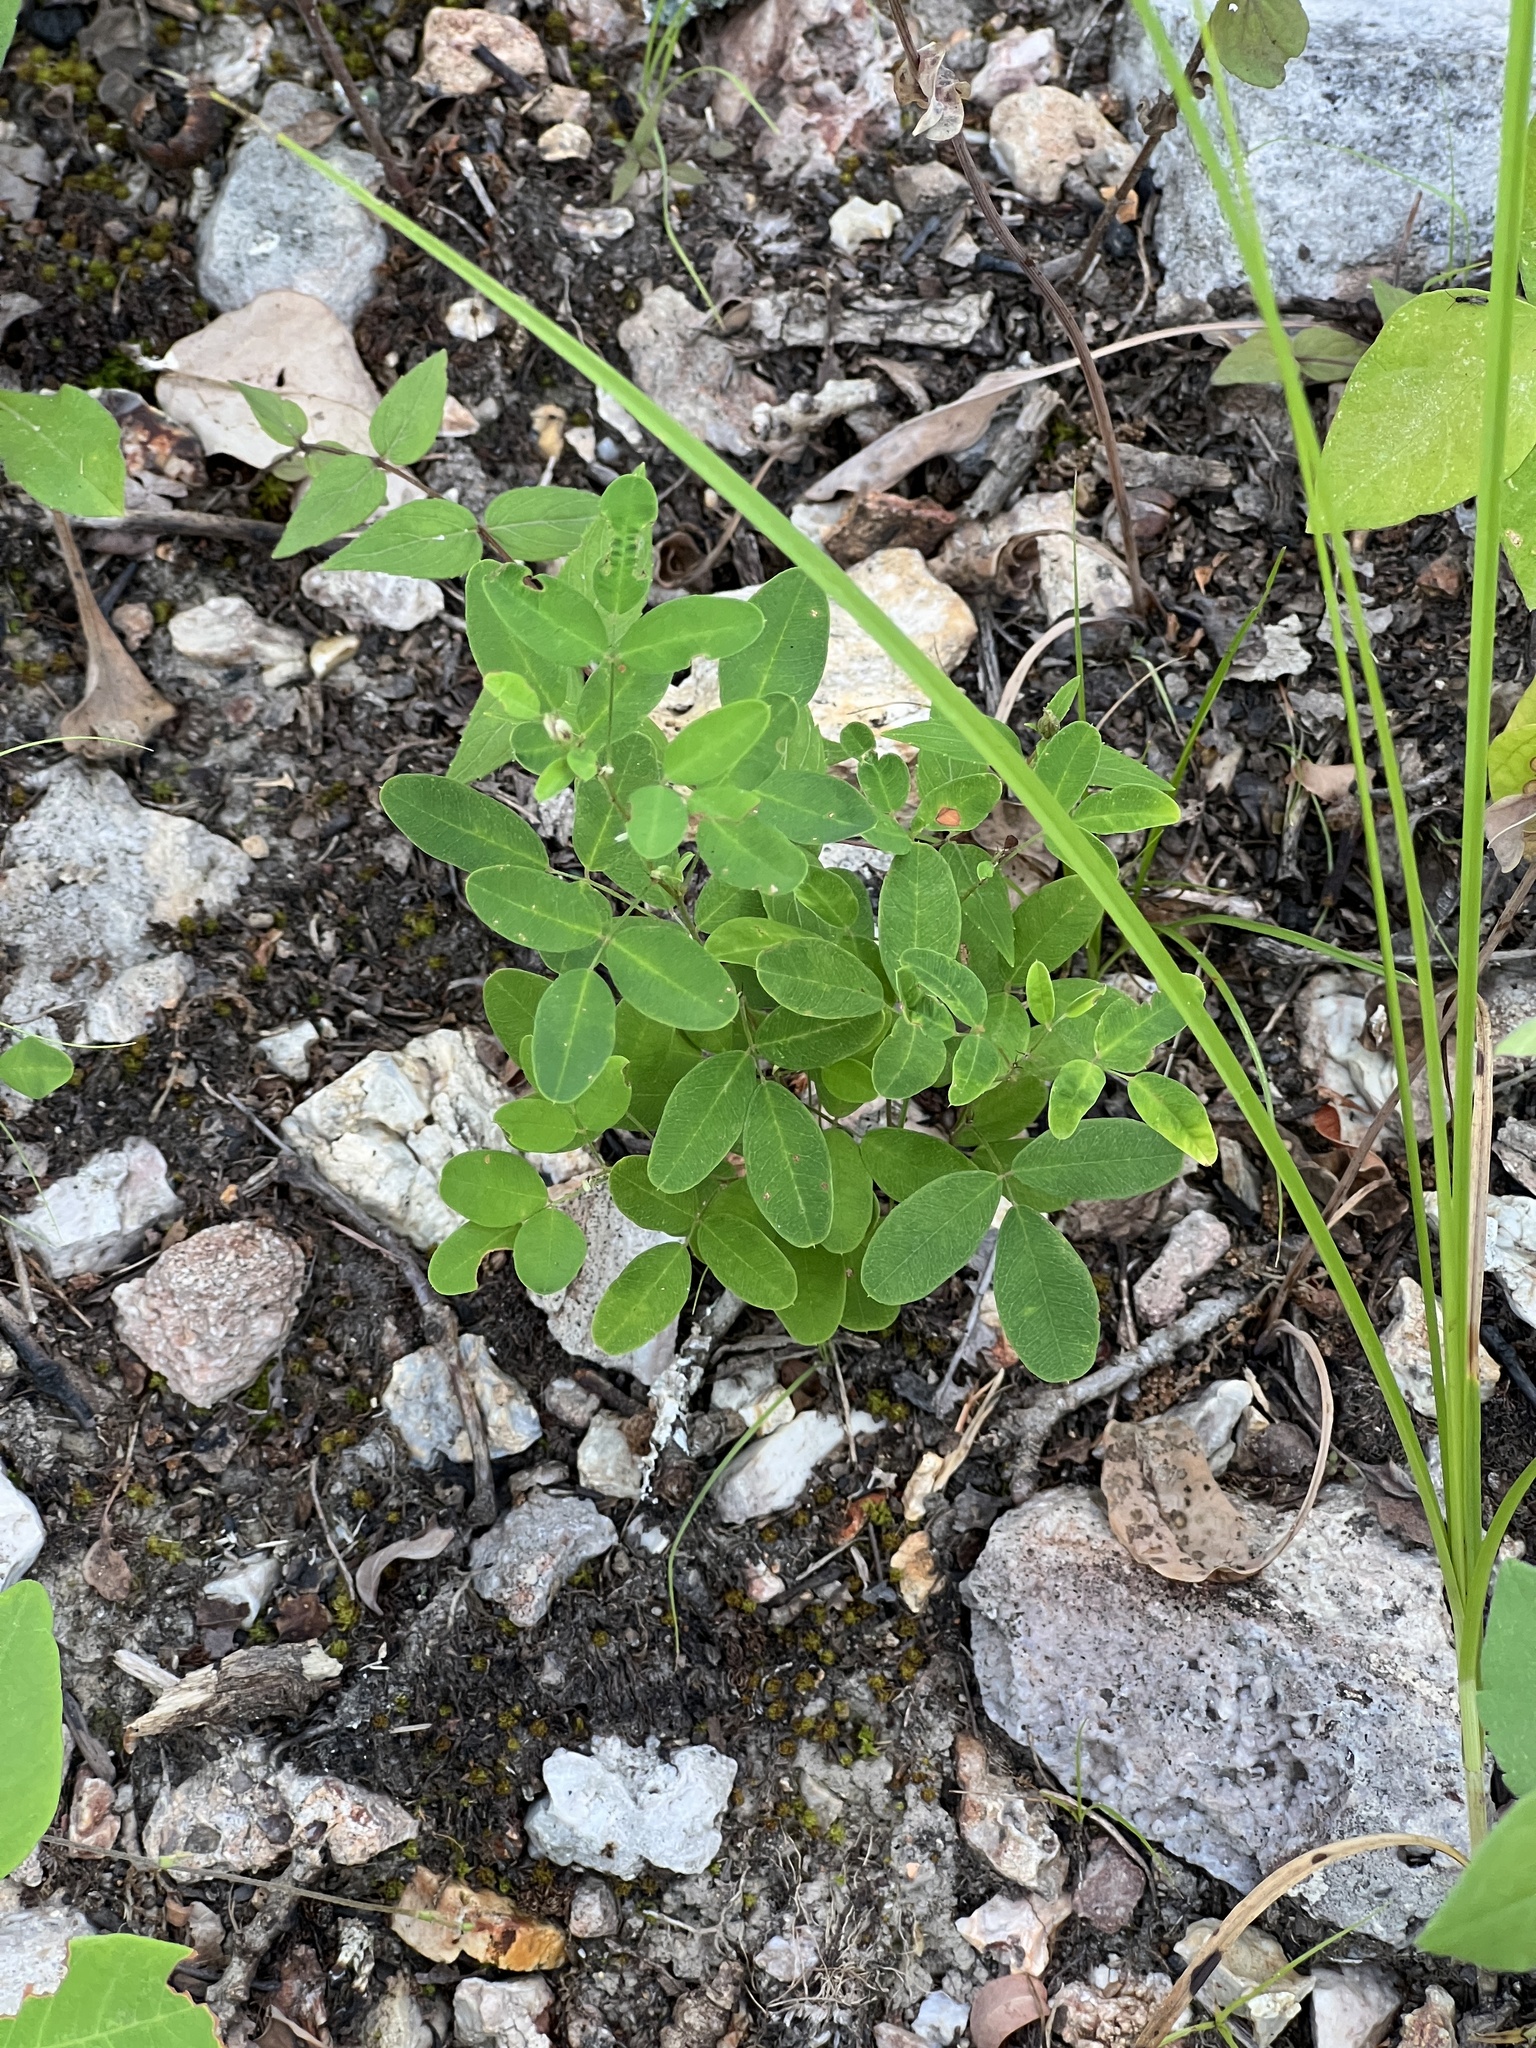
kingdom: Plantae
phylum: Tracheophyta
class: Magnoliopsida
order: Fabales
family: Fabaceae
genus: Lespedeza
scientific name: Lespedeza violacea
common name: Wand bush-clover
